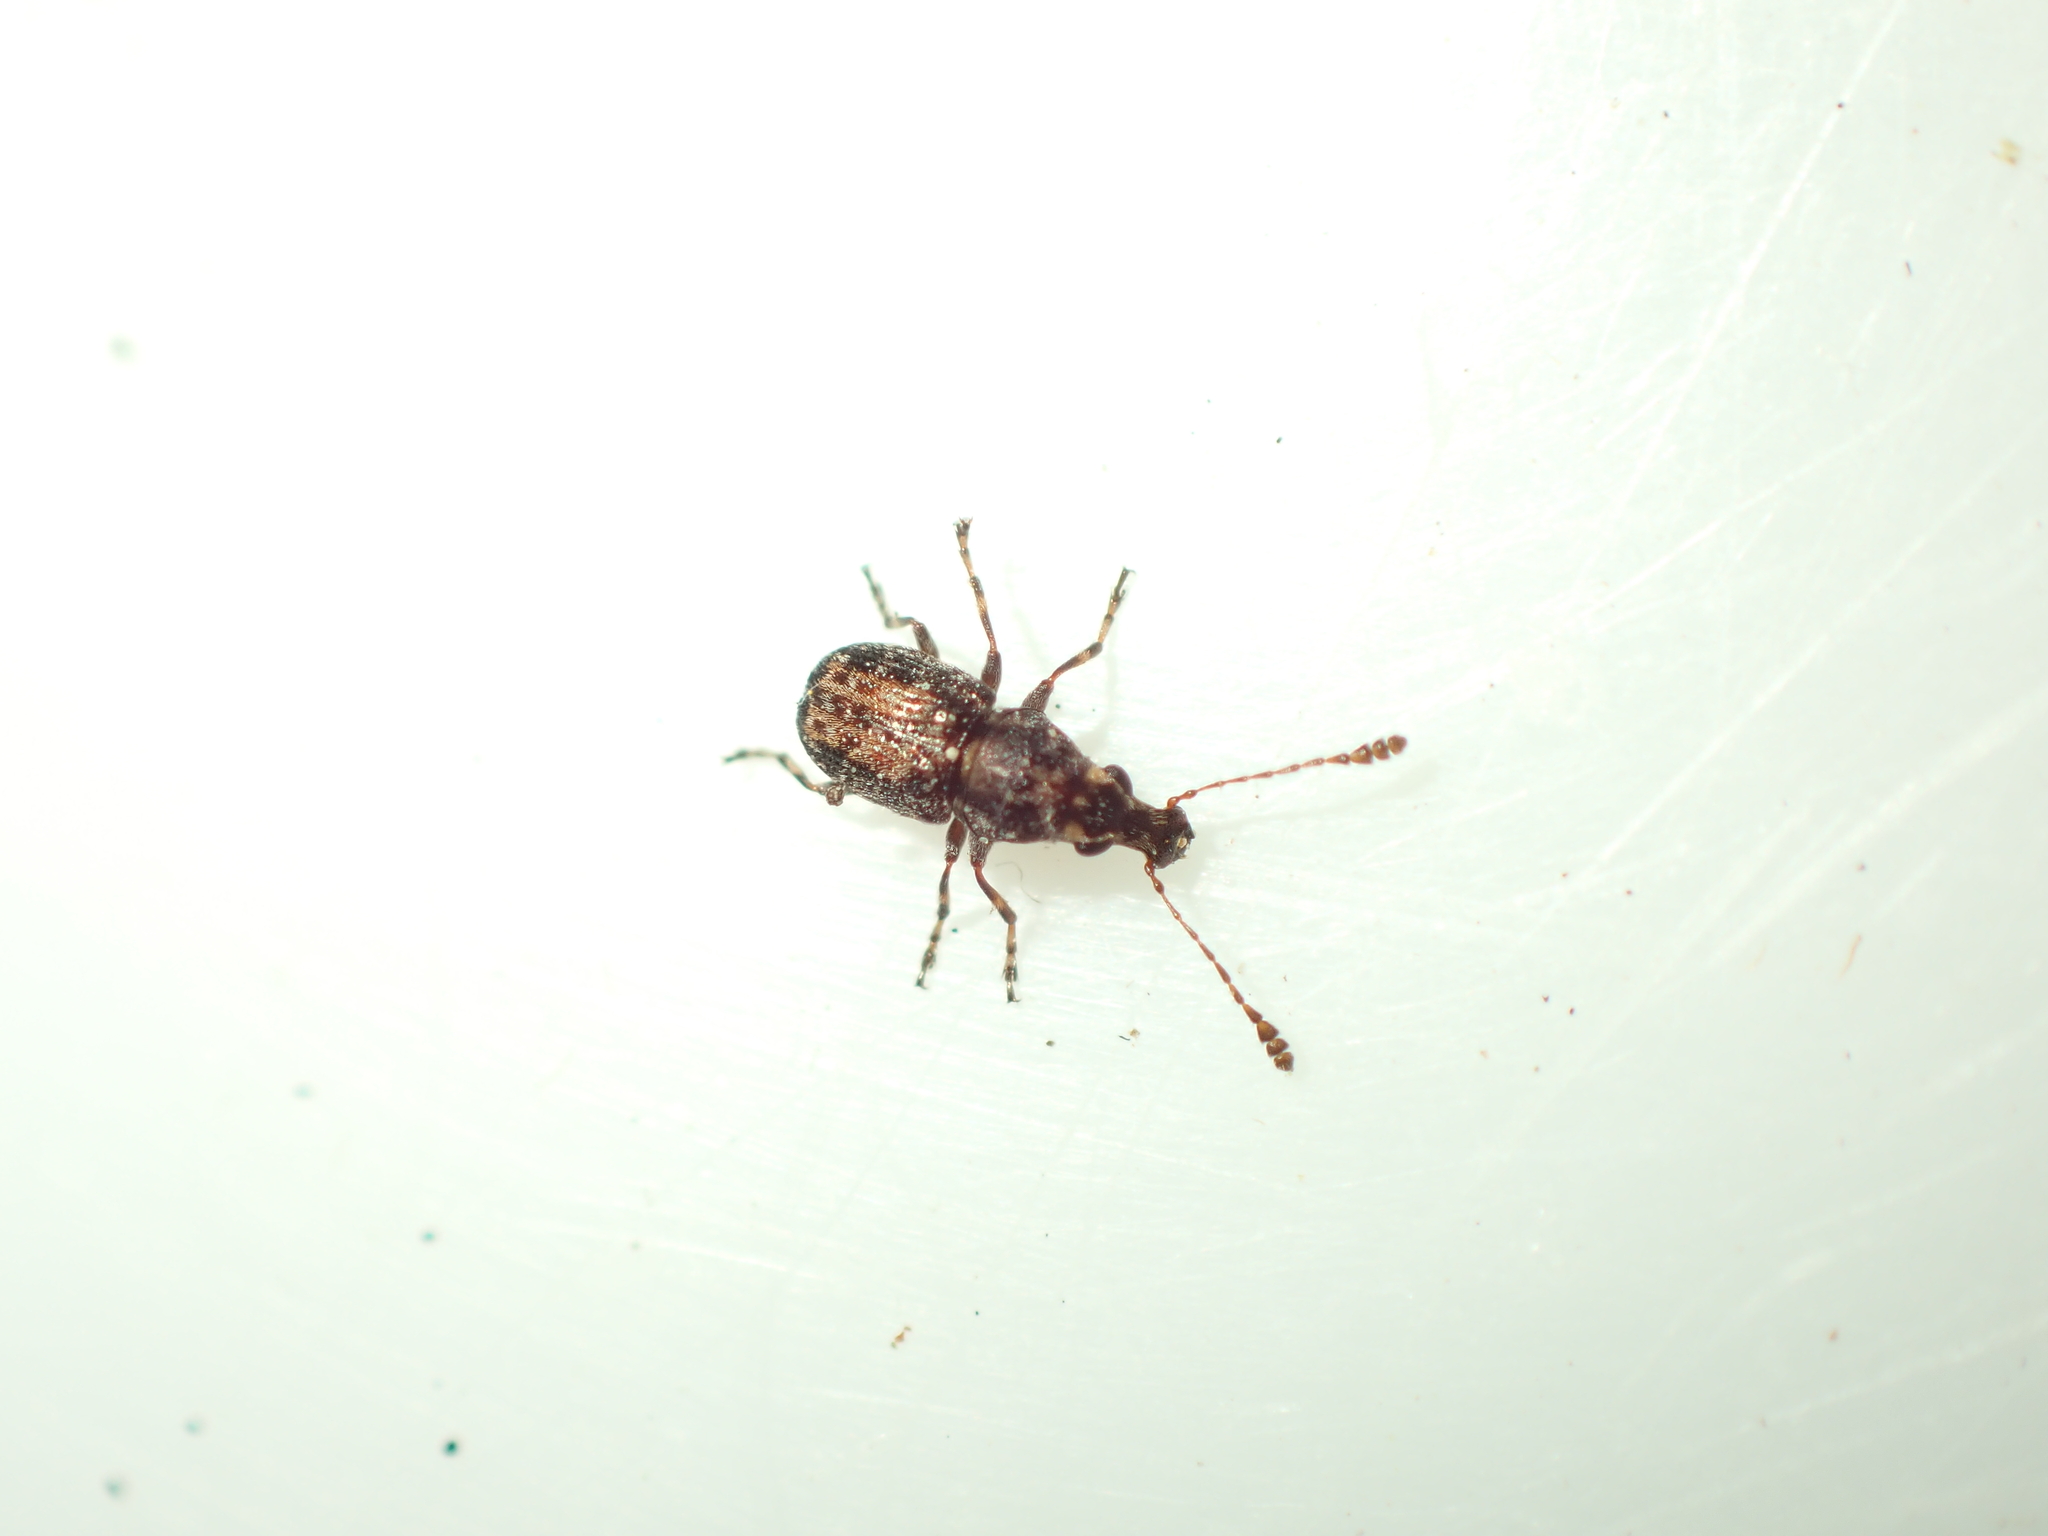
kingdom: Animalia
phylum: Arthropoda
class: Insecta
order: Coleoptera
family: Anthribidae
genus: Sharpius
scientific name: Sharpius
